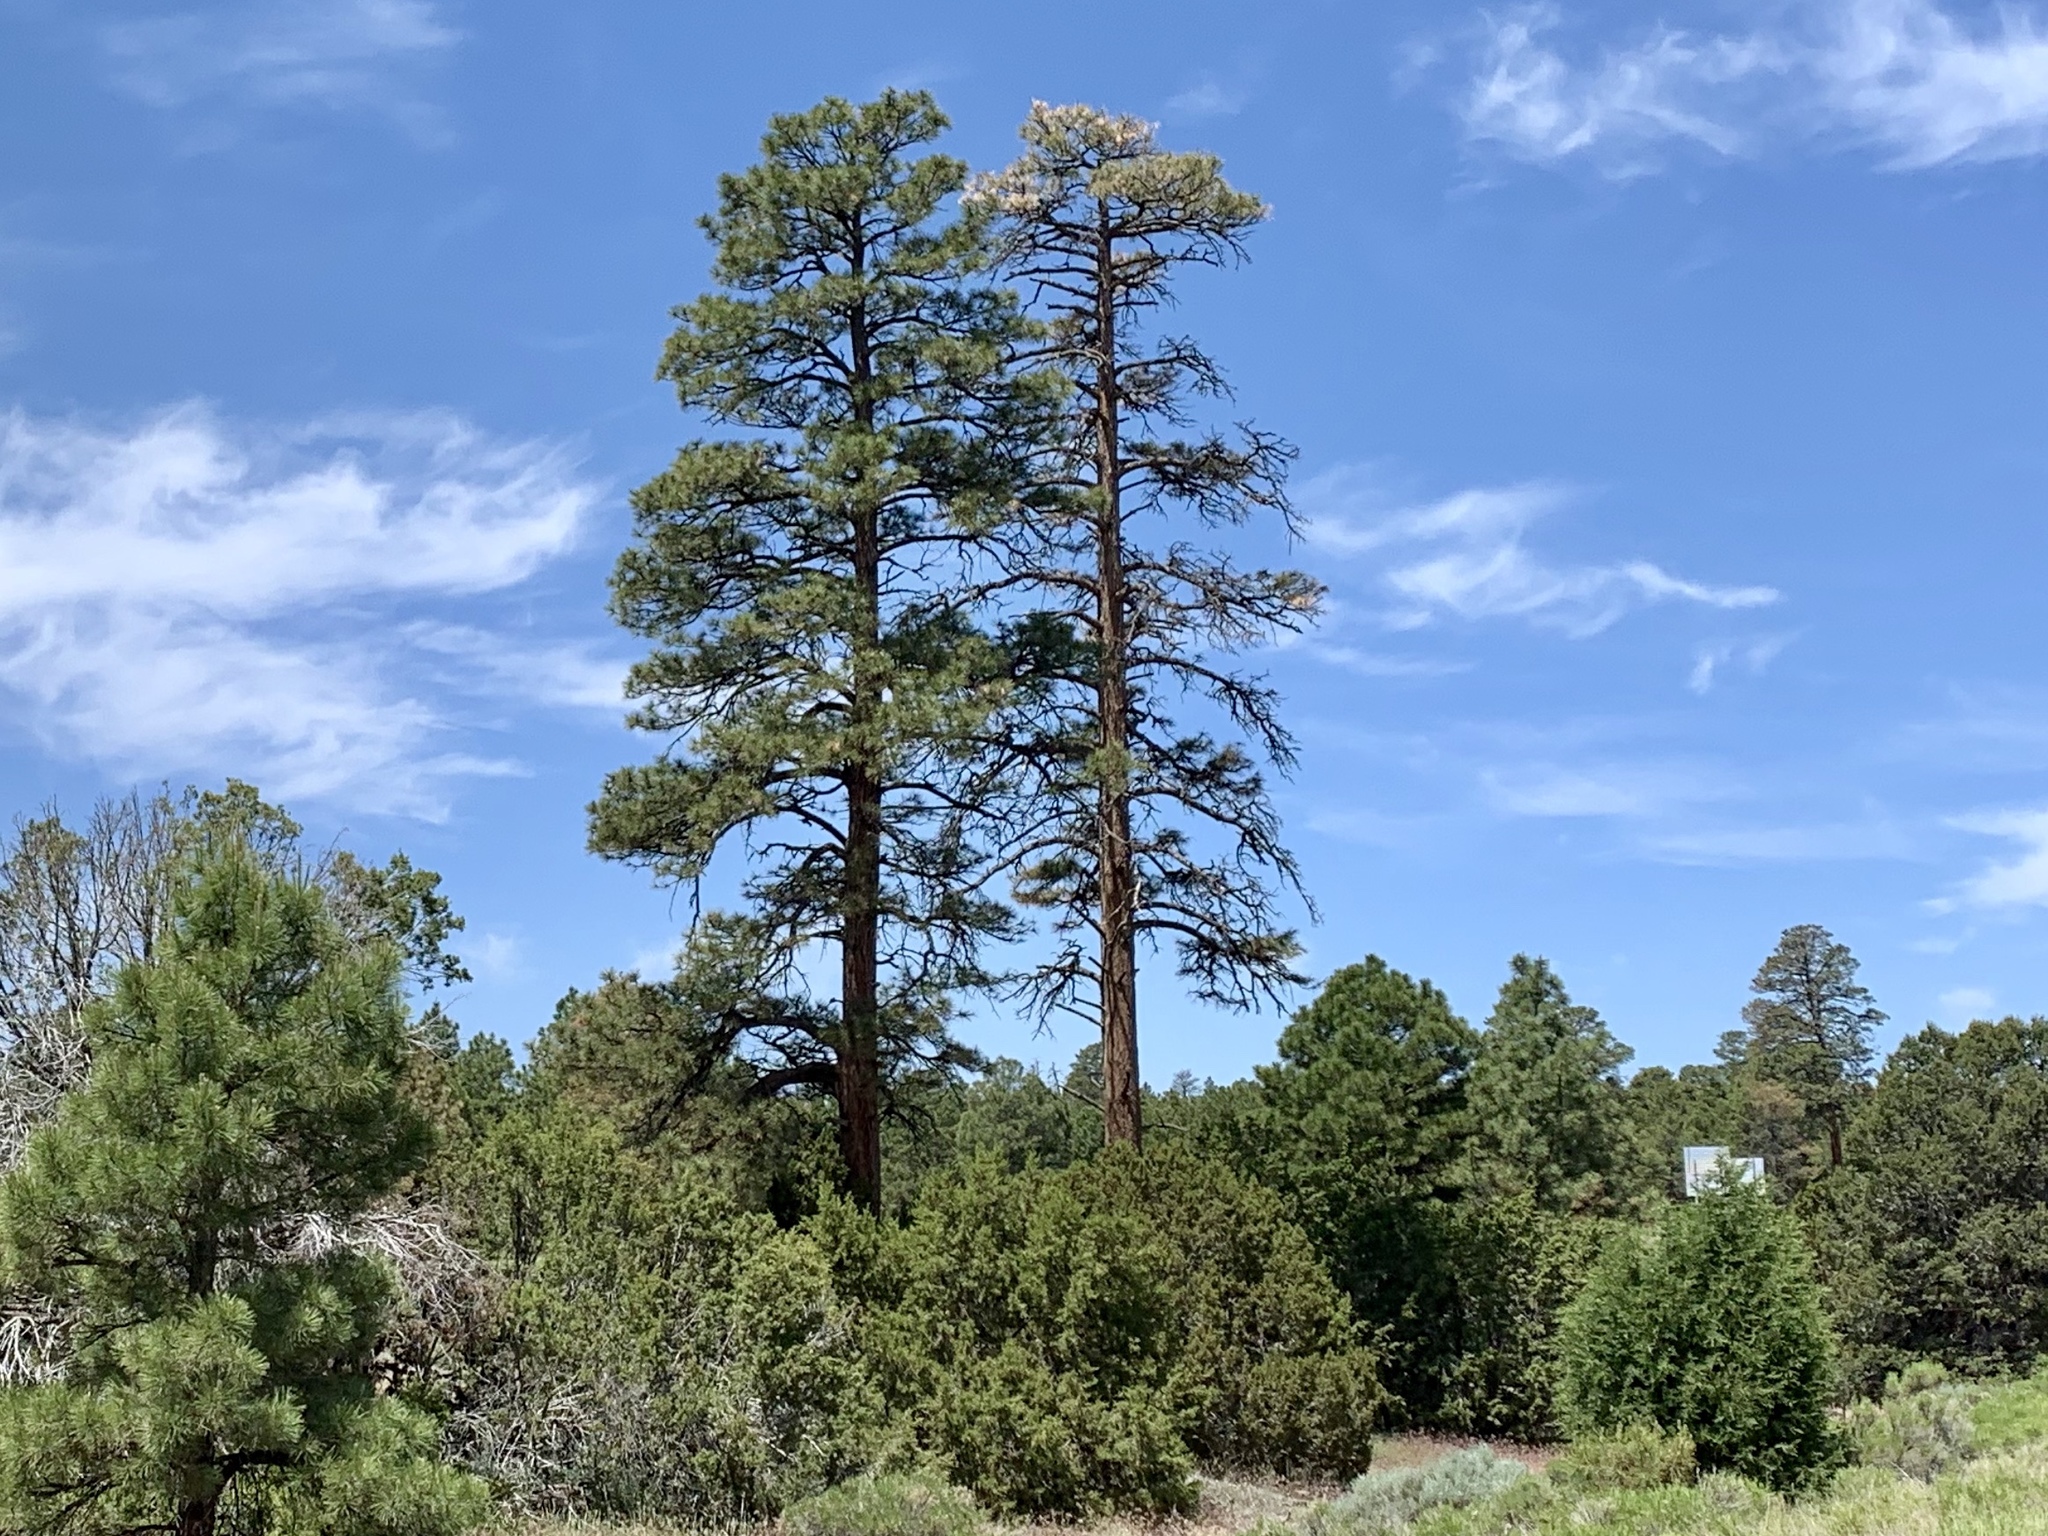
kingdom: Plantae
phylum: Tracheophyta
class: Pinopsida
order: Pinales
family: Pinaceae
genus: Pinus
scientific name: Pinus ponderosa
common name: Western yellow-pine
